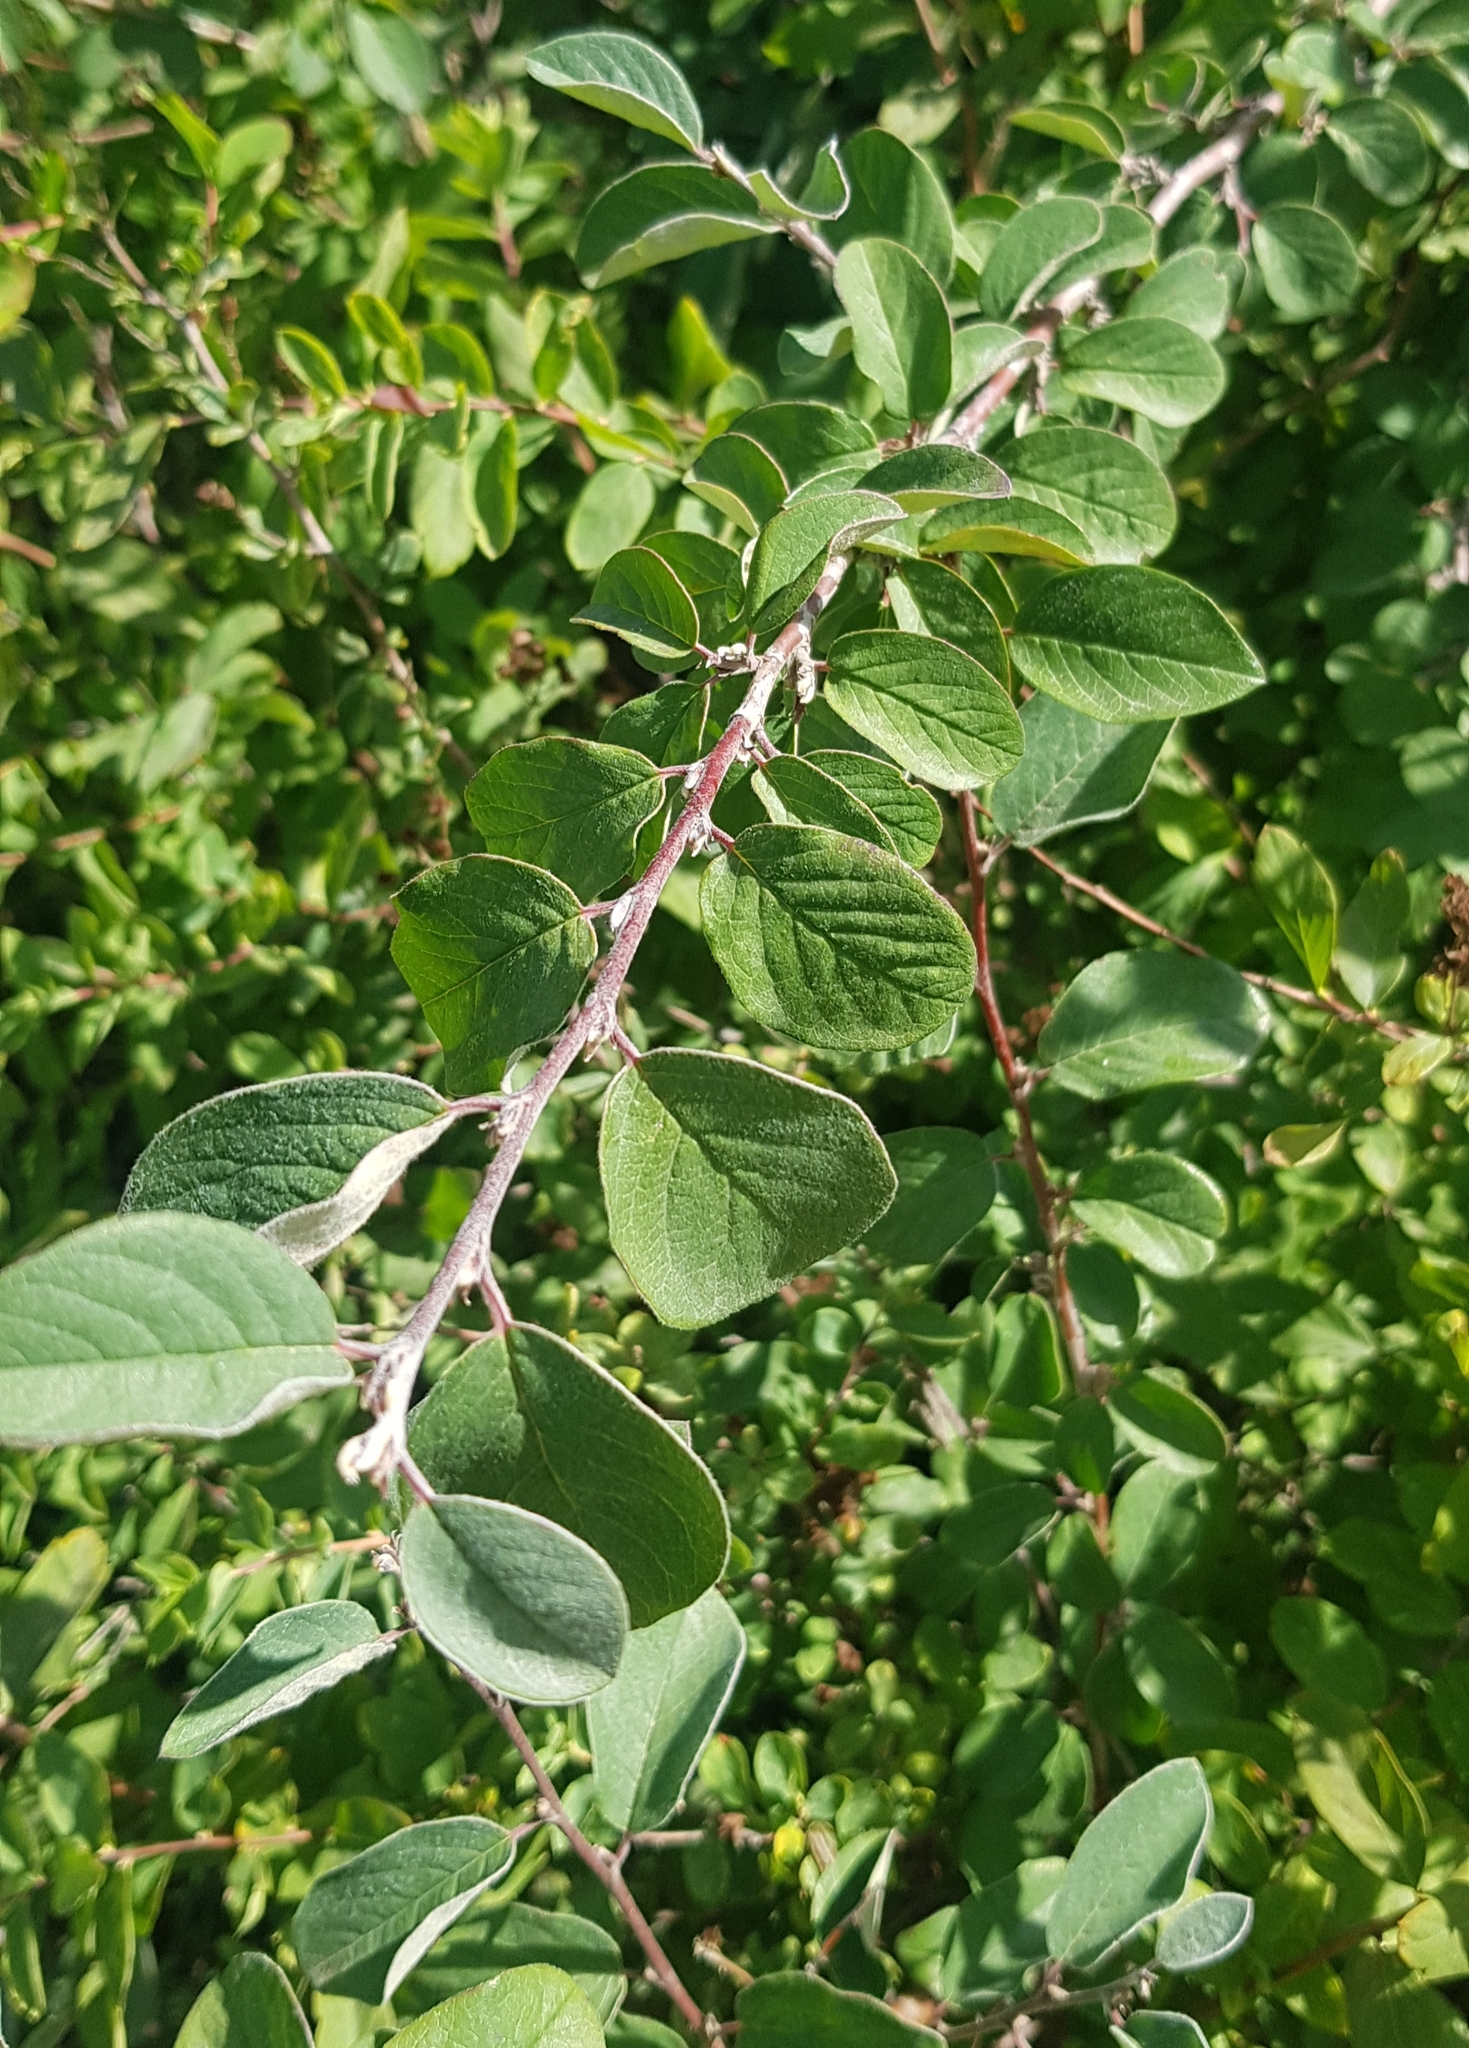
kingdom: Plantae
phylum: Tracheophyta
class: Magnoliopsida
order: Rosales
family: Rosaceae
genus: Cotoneaster
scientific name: Cotoneaster melanocarpus
